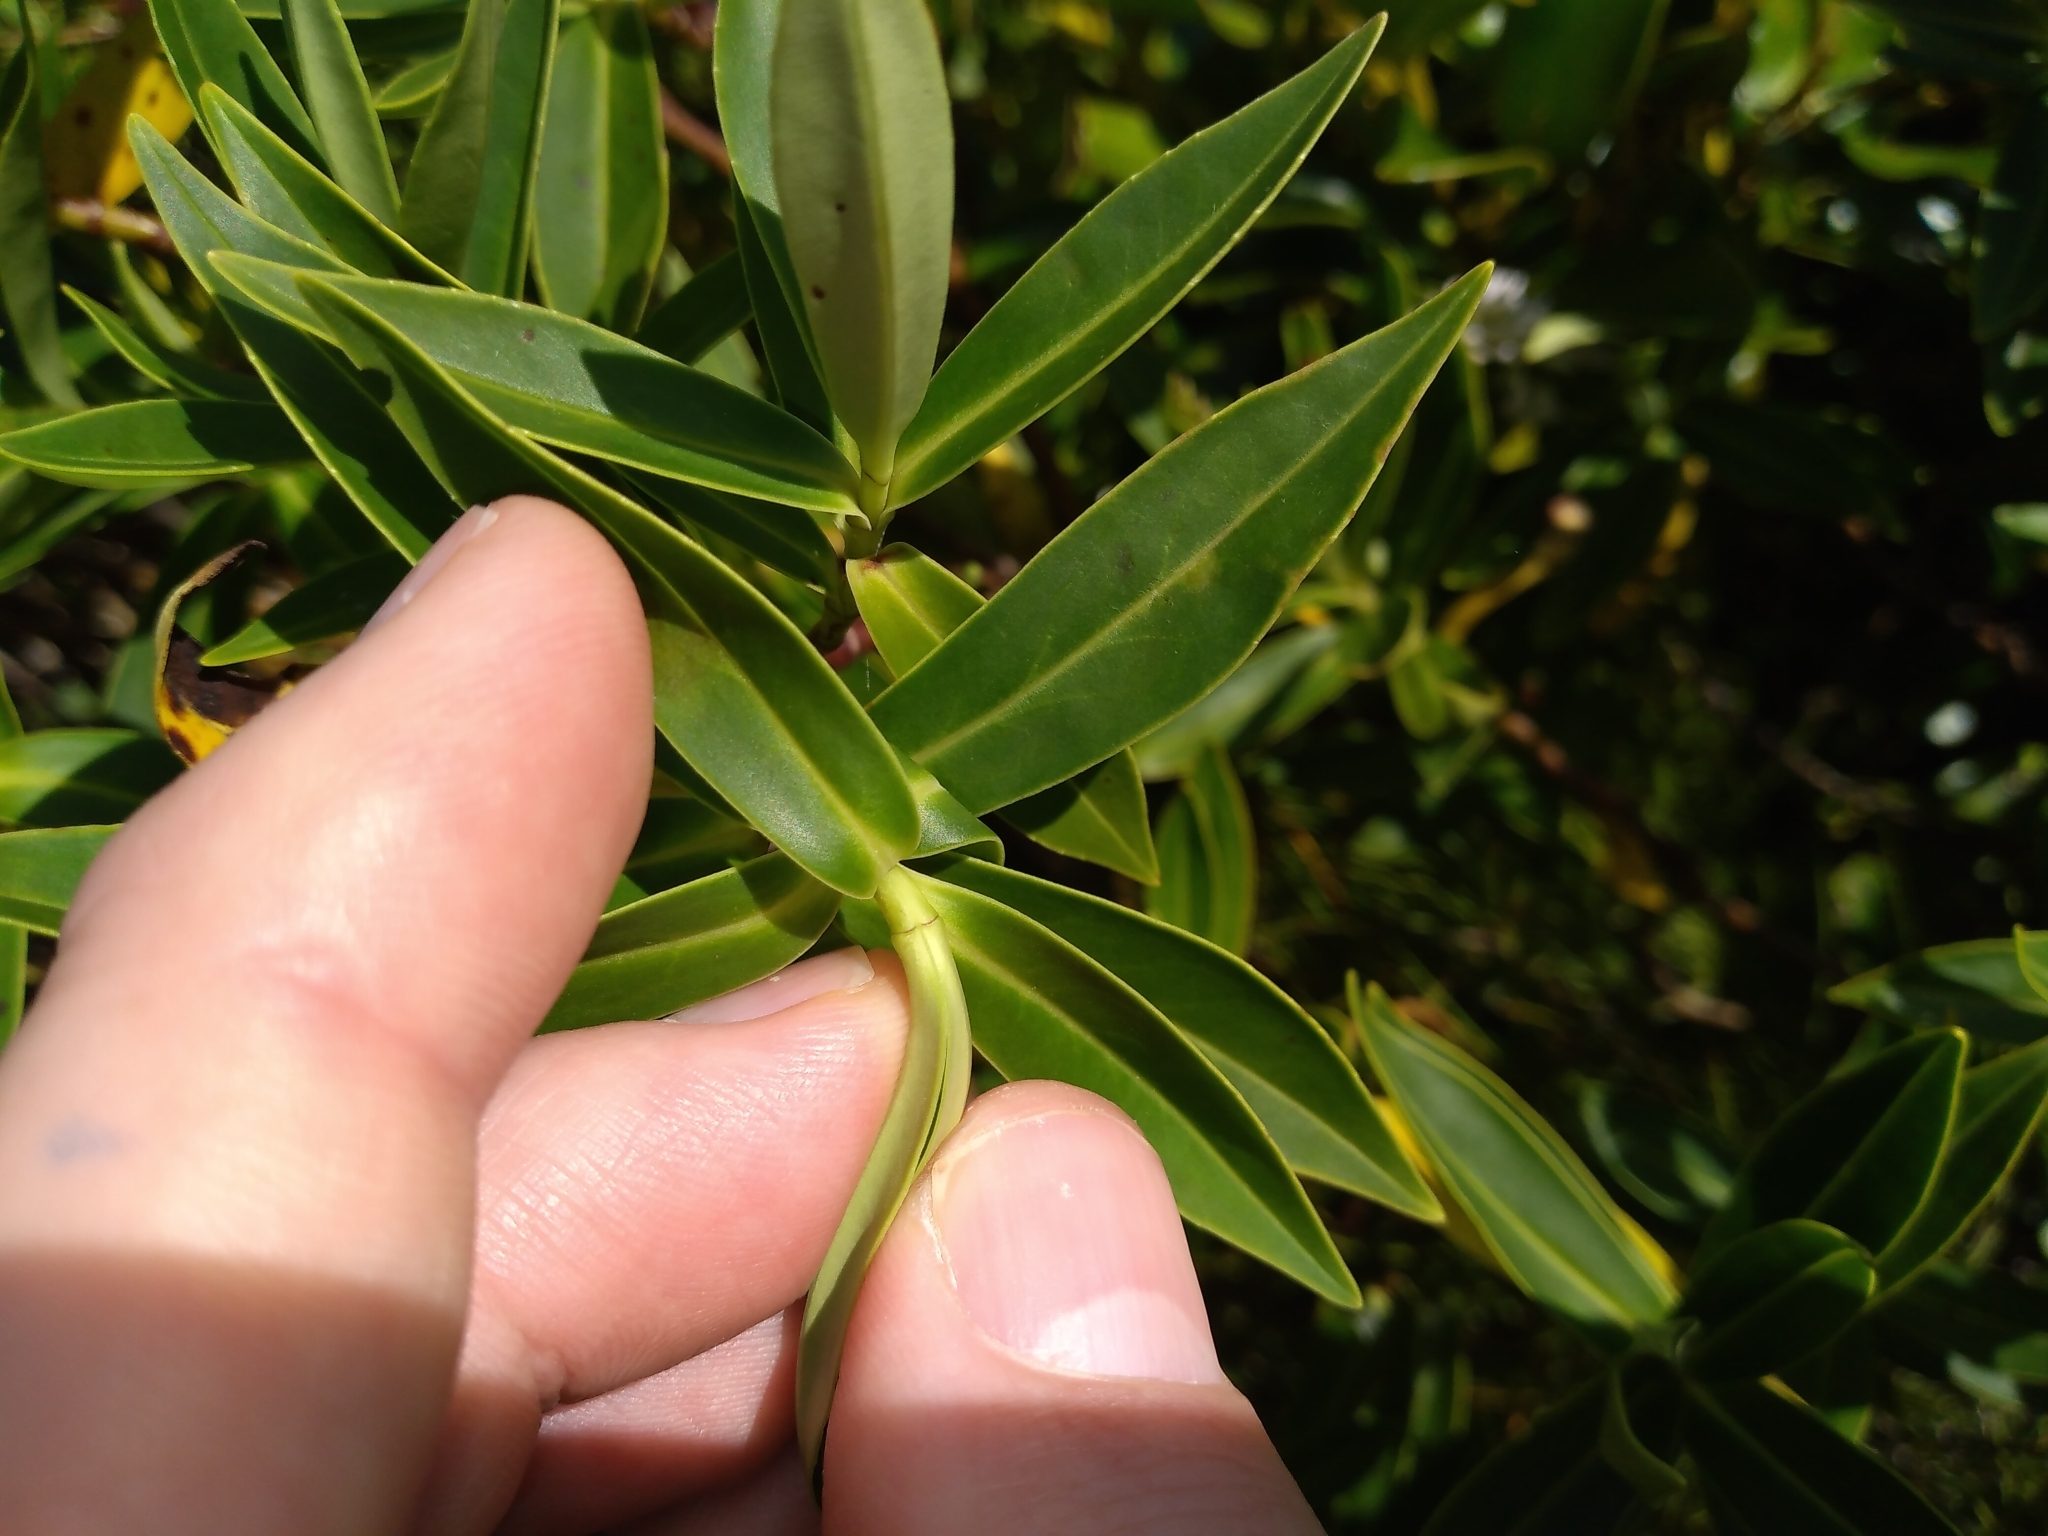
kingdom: Plantae
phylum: Tracheophyta
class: Magnoliopsida
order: Lamiales
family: Plantaginaceae
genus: Veronica
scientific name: Veronica stricta
